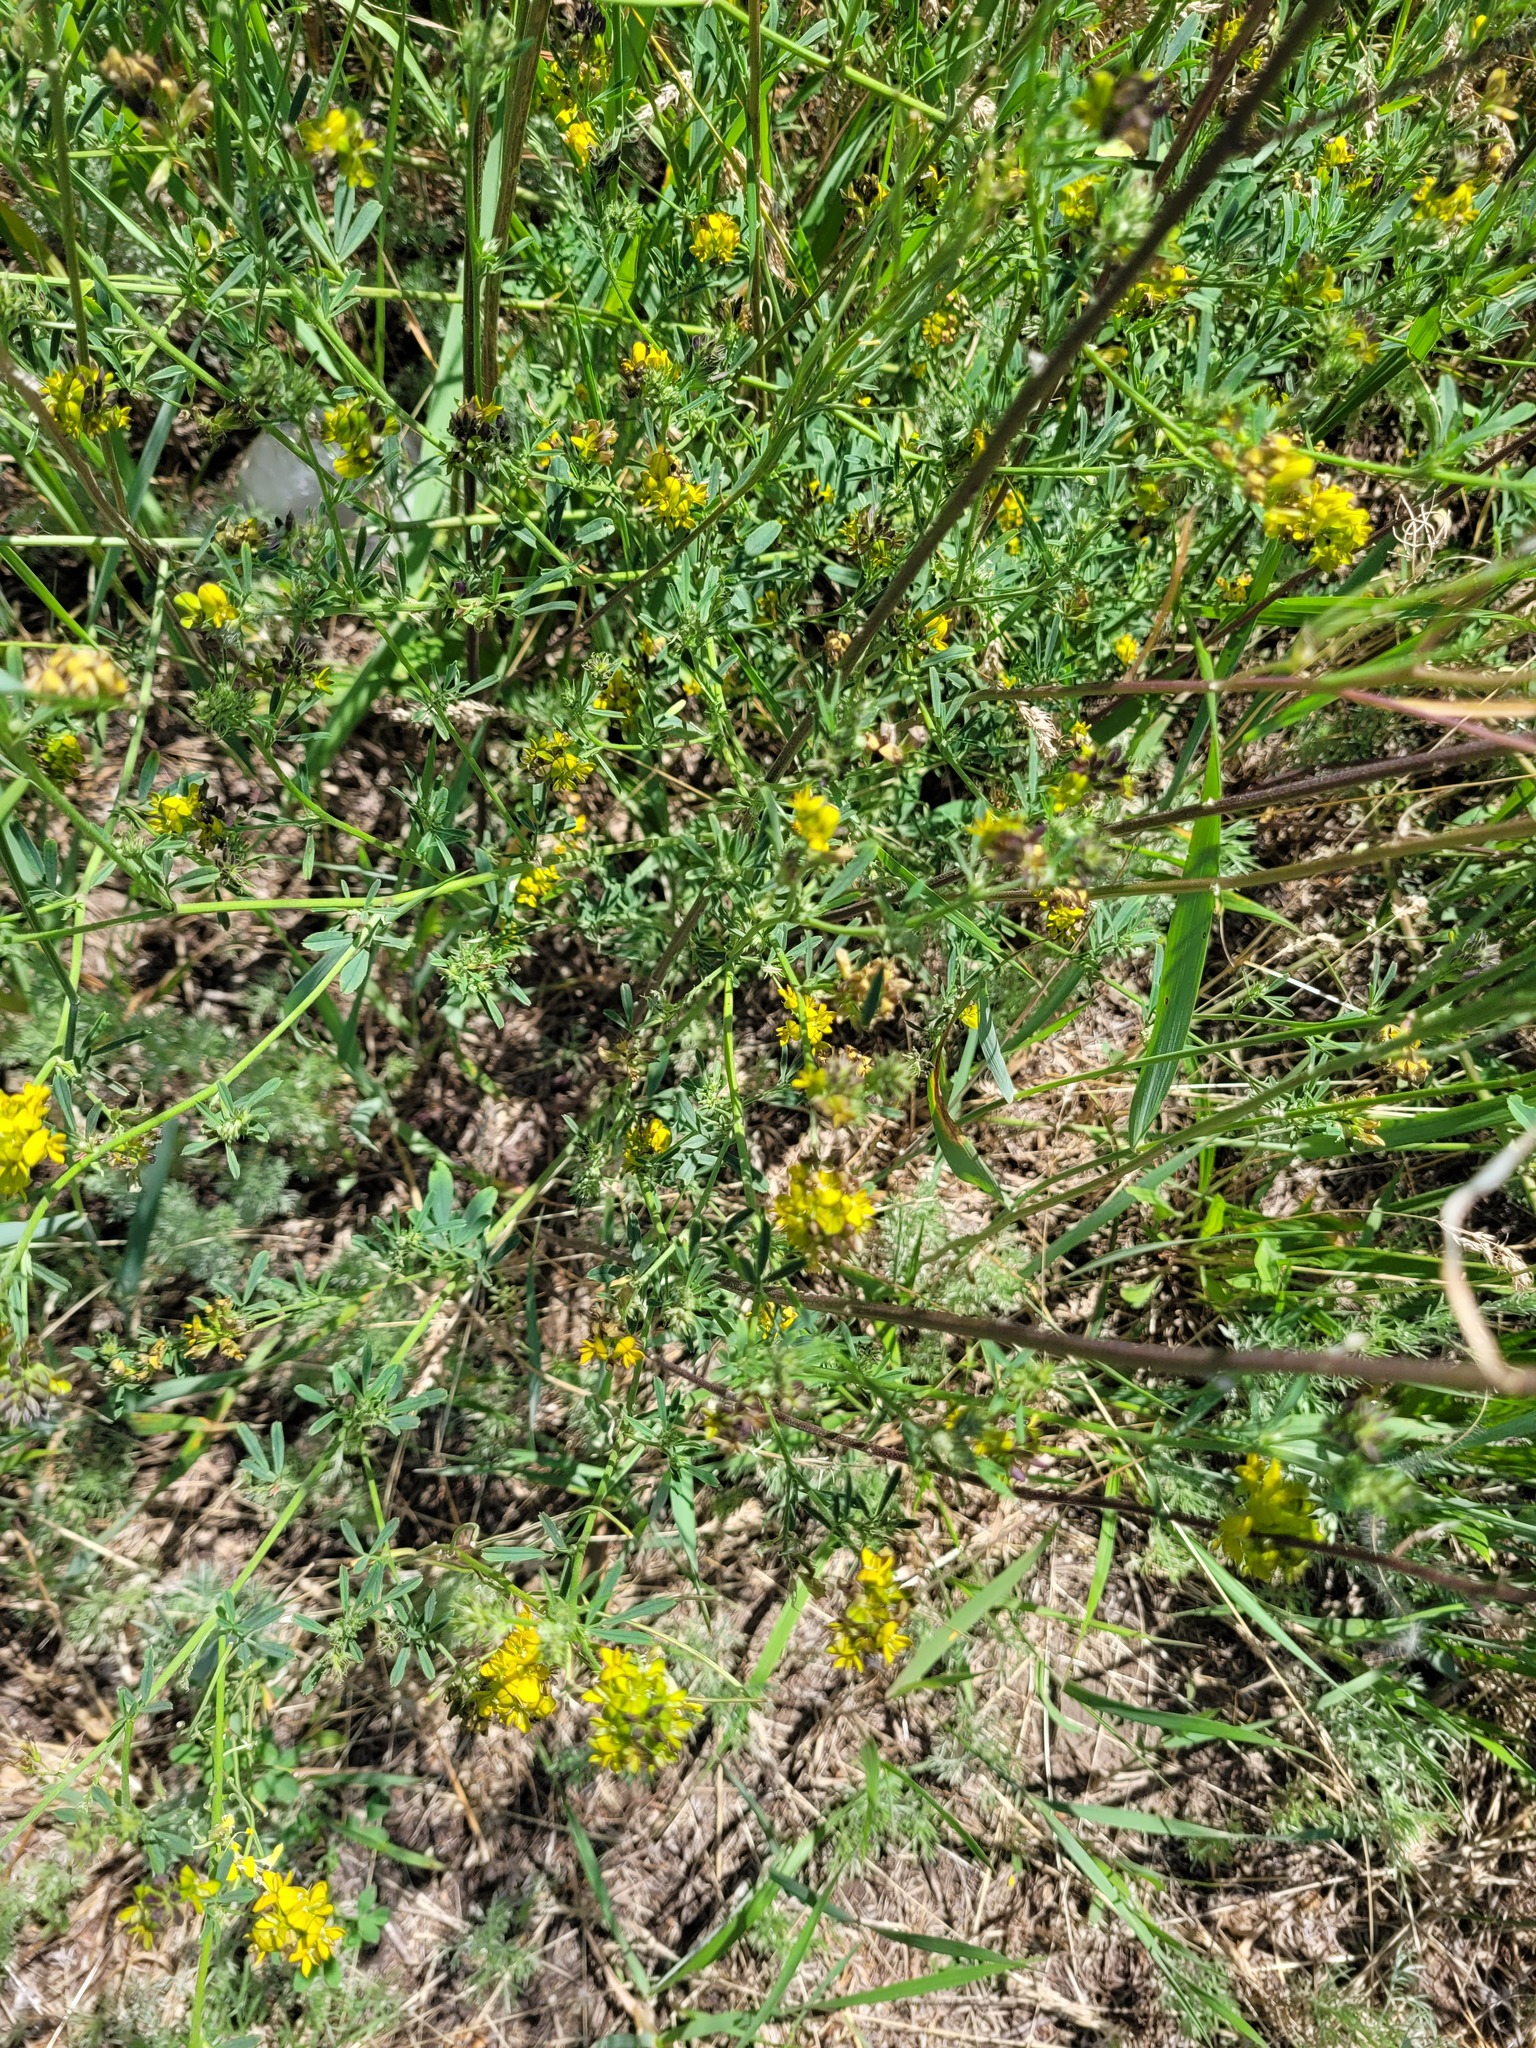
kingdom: Plantae
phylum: Tracheophyta
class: Magnoliopsida
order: Fabales
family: Fabaceae
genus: Medicago
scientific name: Medicago varia
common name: Sand lucerne
